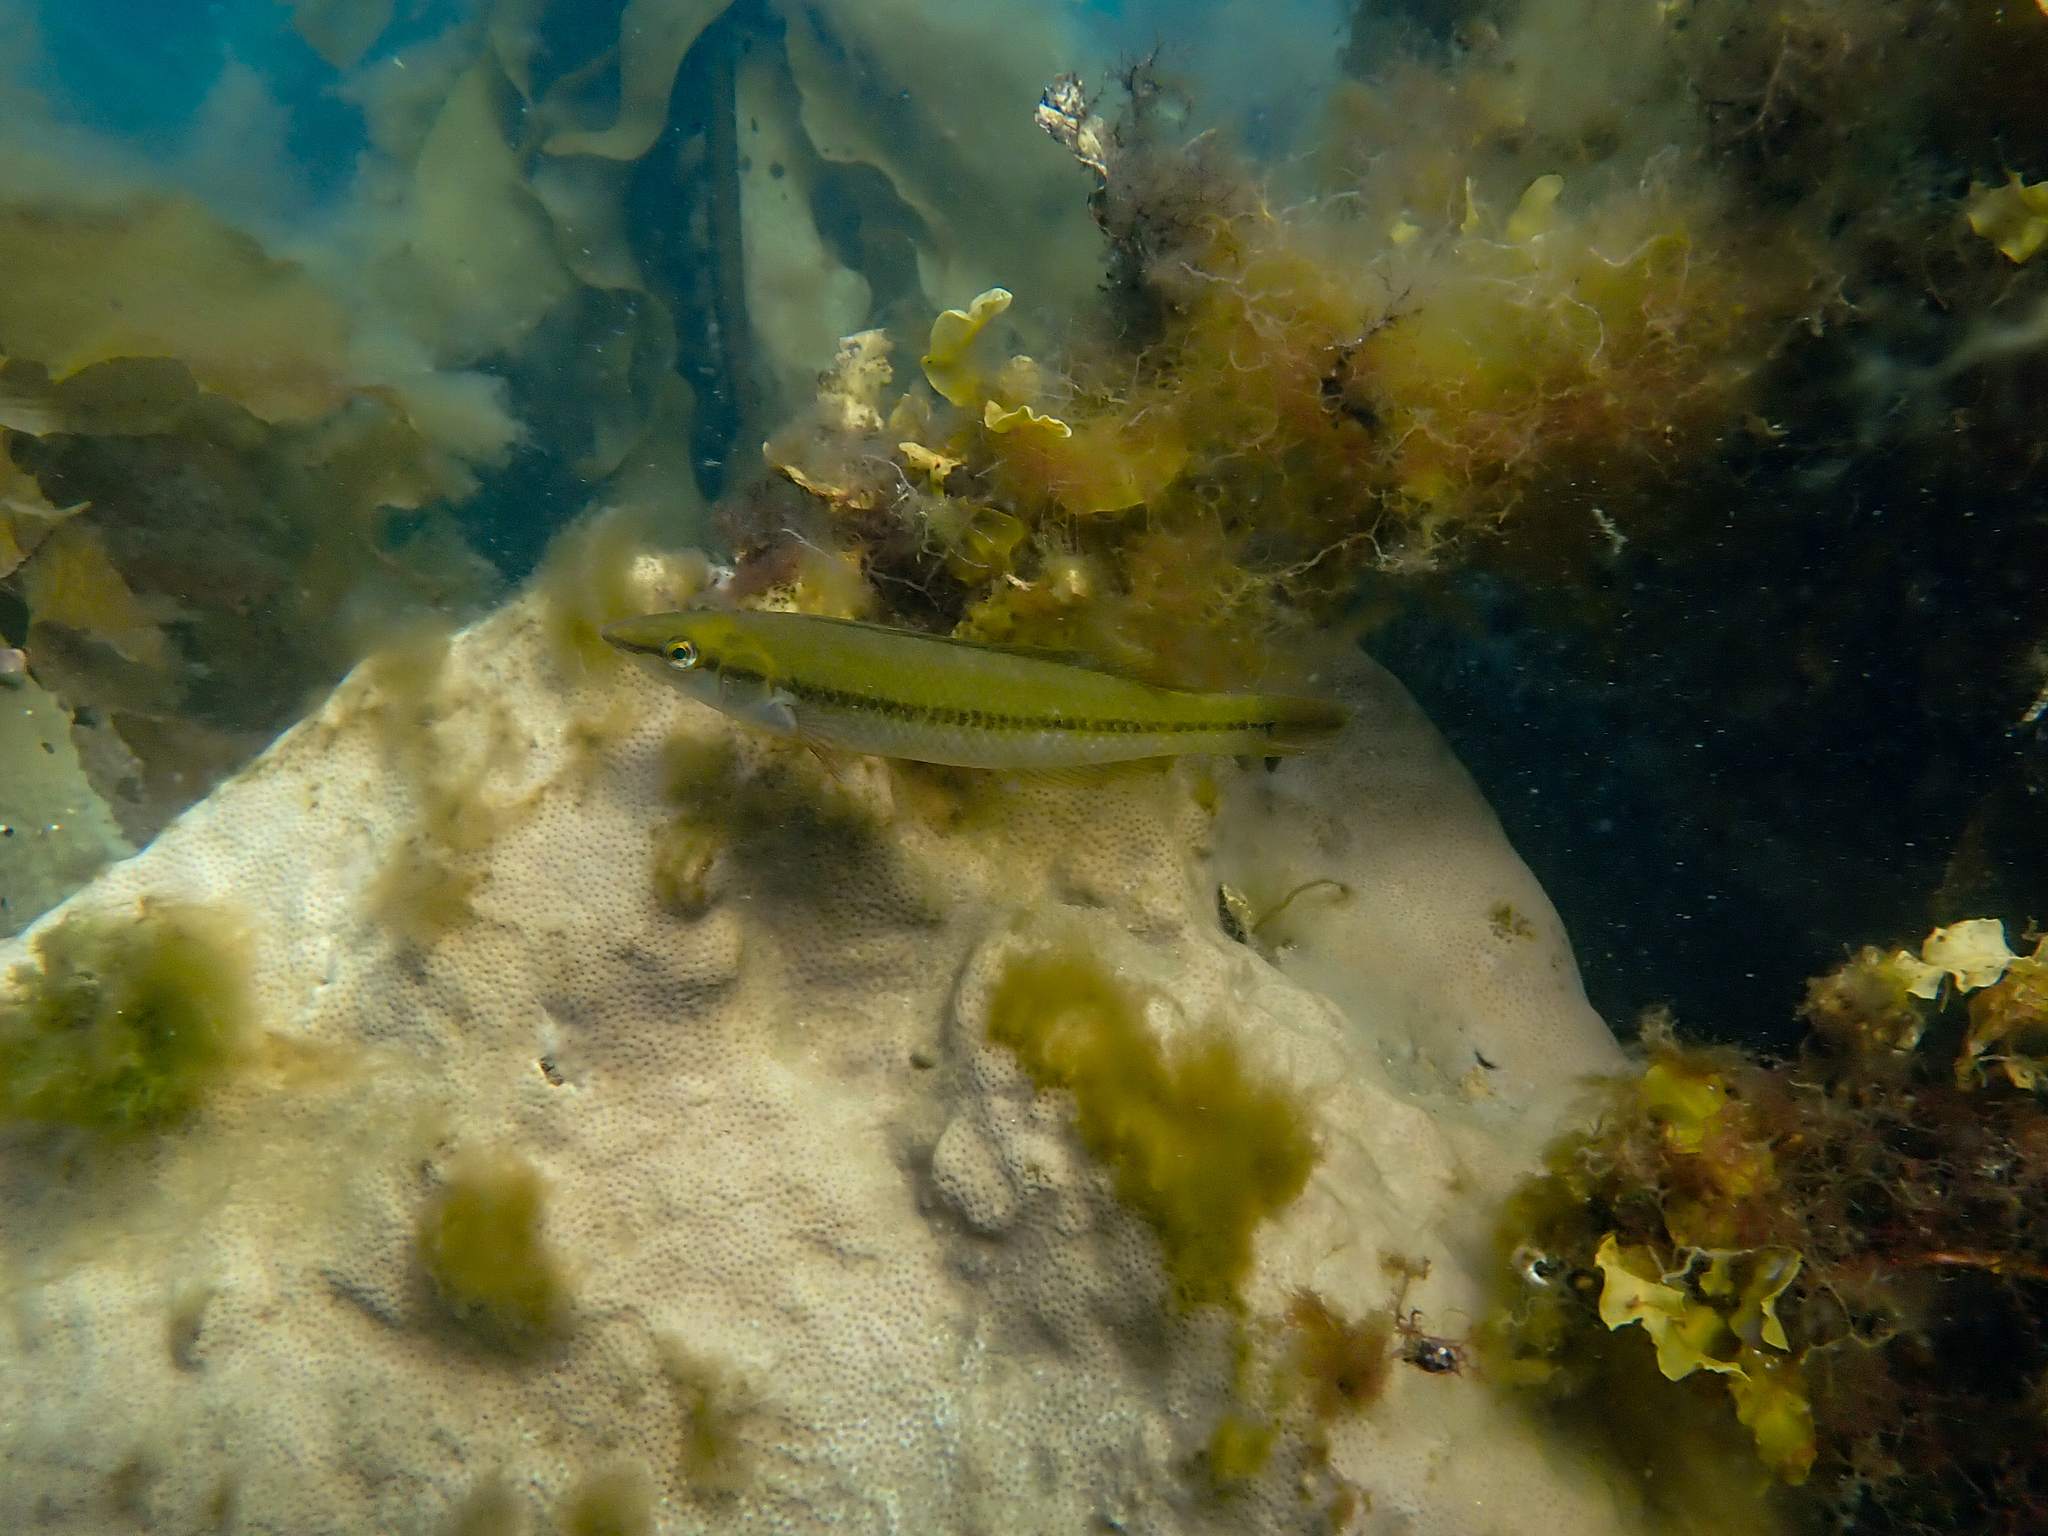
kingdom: Animalia
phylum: Chordata
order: Perciformes
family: Odacidae
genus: Neoodax
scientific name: Neoodax balteatus
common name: Ground mullet
